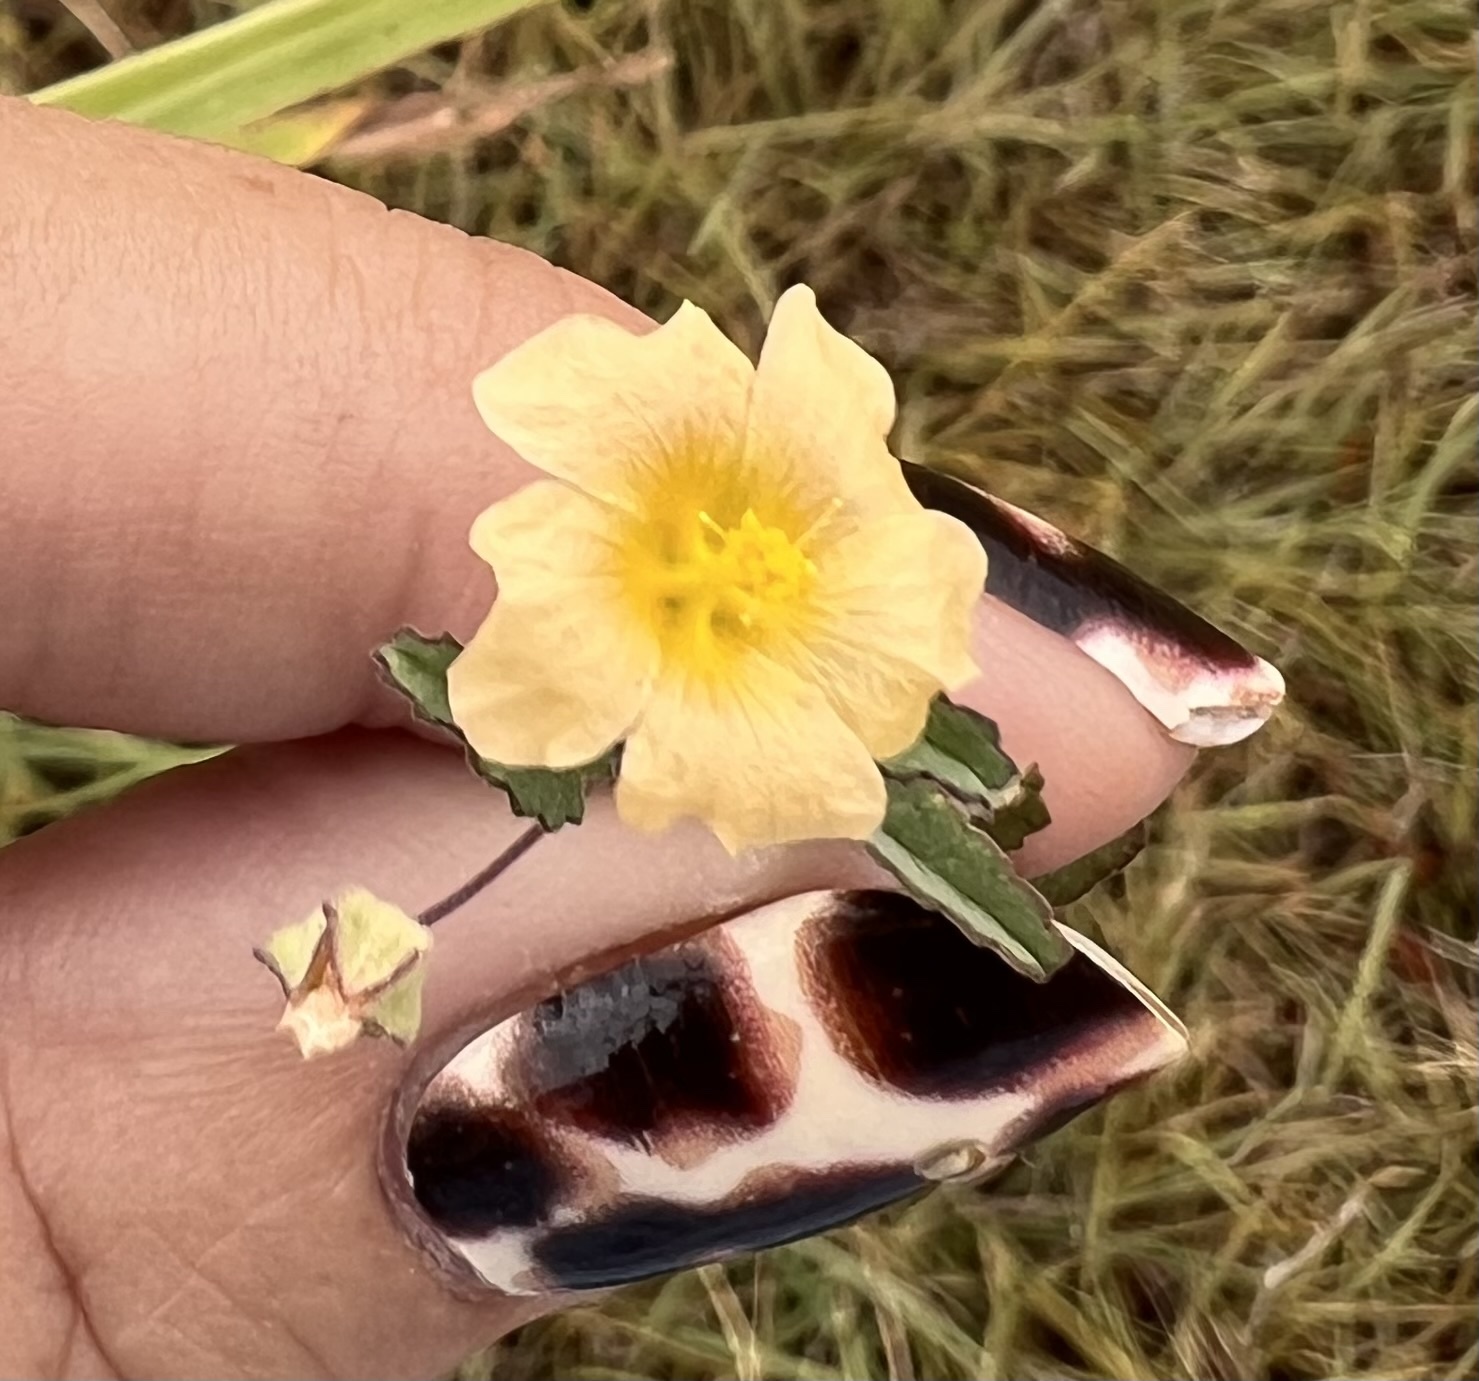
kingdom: Plantae
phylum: Tracheophyta
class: Magnoliopsida
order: Malvales
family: Malvaceae
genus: Sida
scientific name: Sida abutilifolia
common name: Spreading fanpetals
